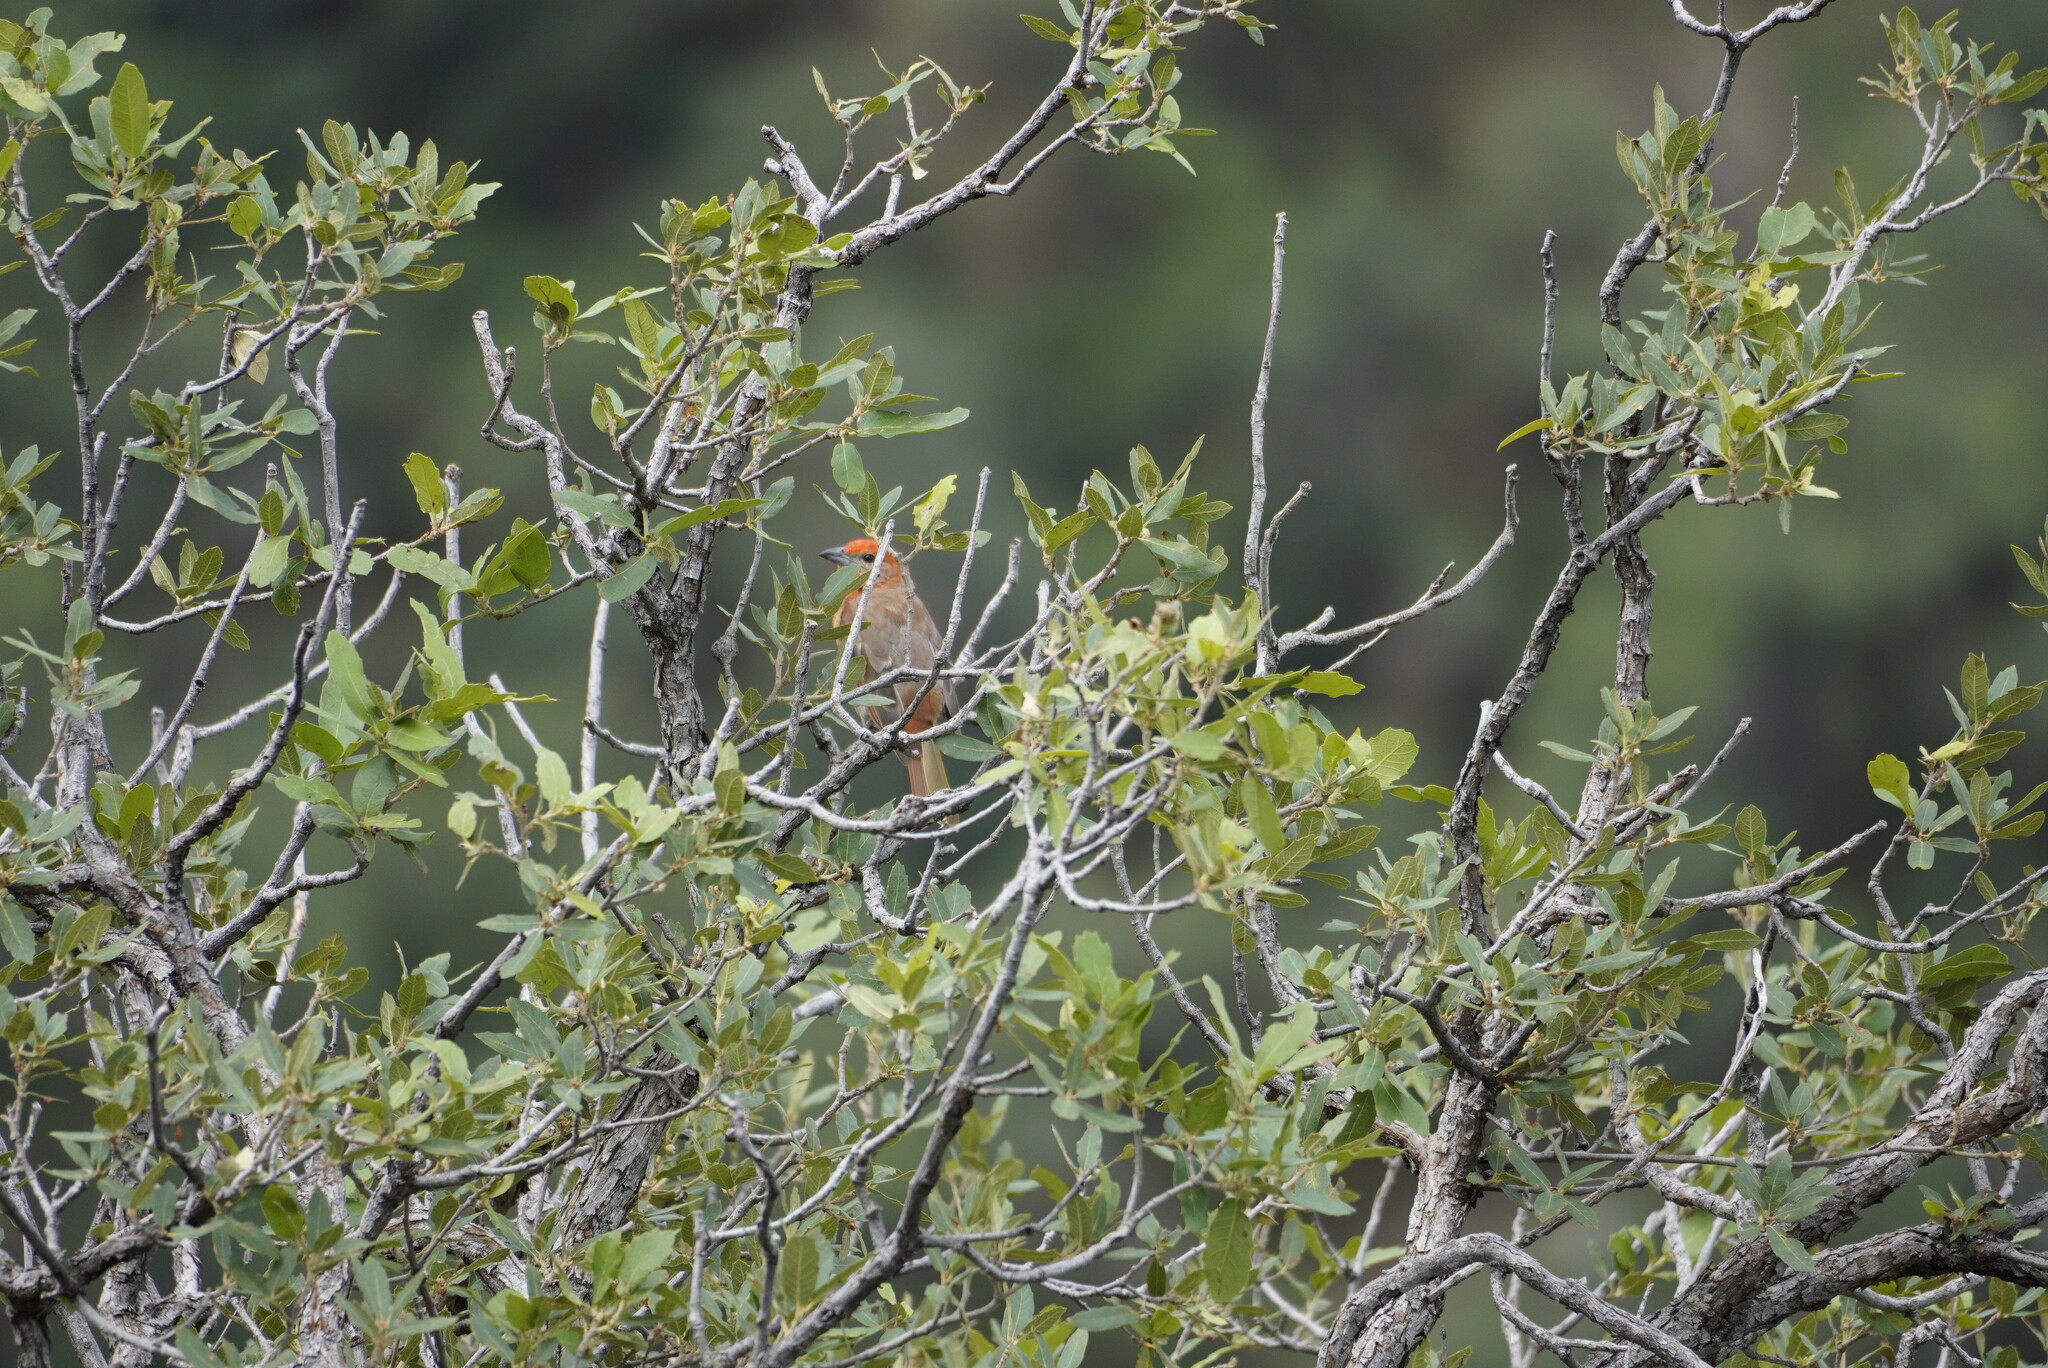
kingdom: Animalia
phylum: Chordata
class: Aves
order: Passeriformes
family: Cardinalidae
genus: Piranga
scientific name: Piranga flava
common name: Red tanager
